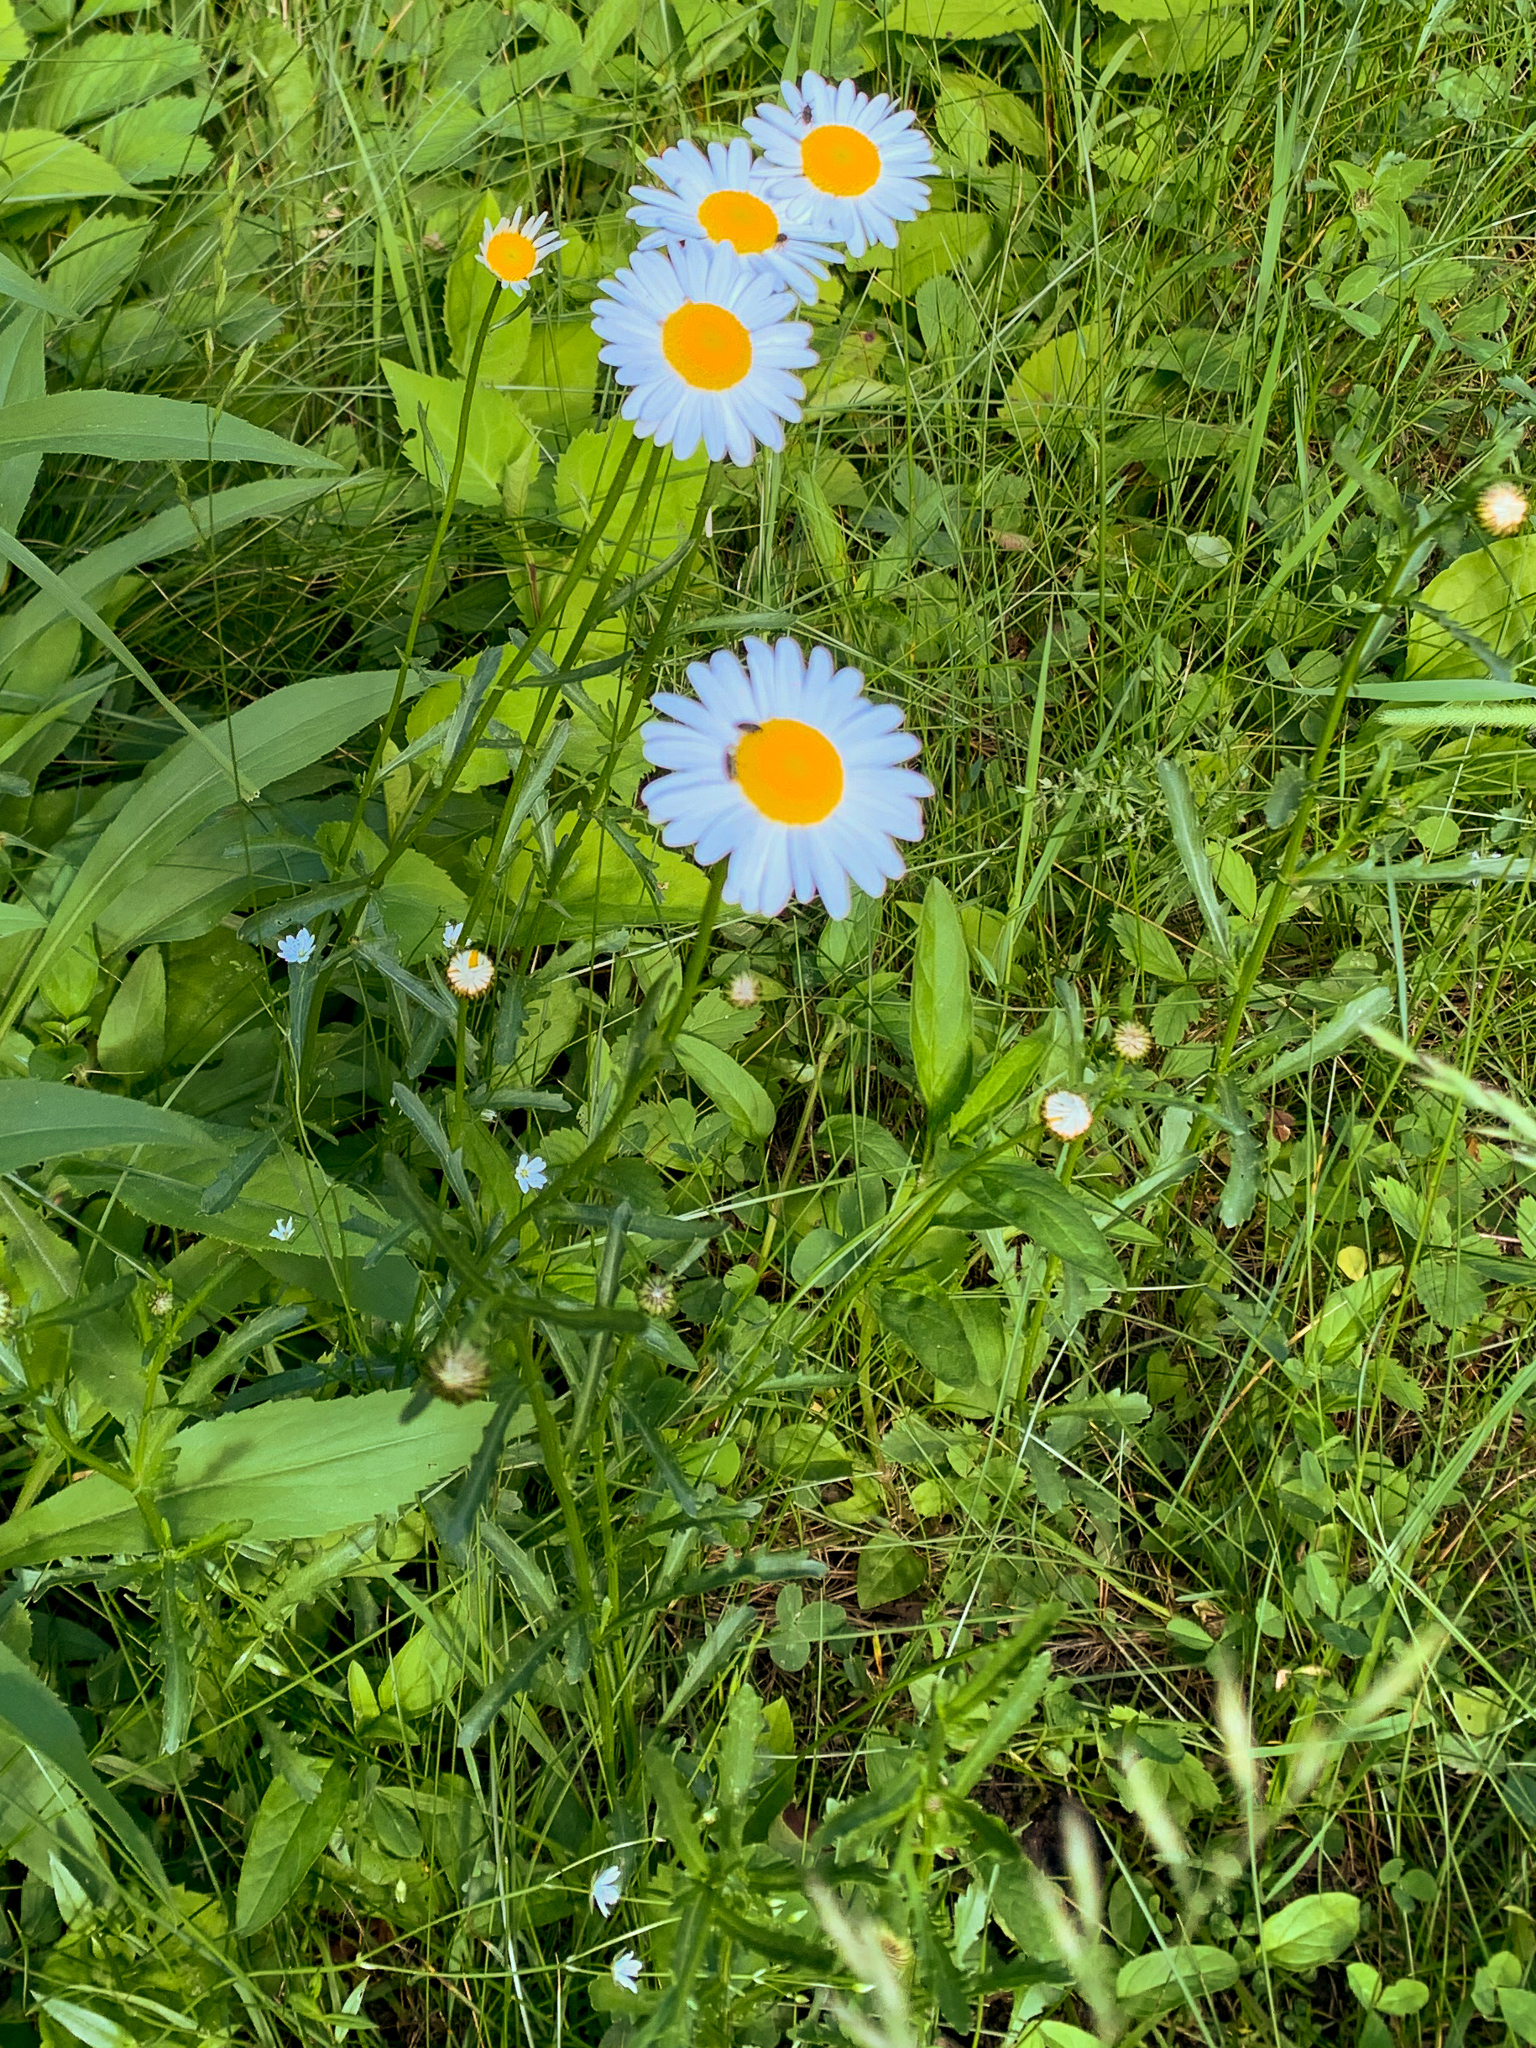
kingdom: Plantae
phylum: Tracheophyta
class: Magnoliopsida
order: Asterales
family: Asteraceae
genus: Leucanthemum
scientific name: Leucanthemum vulgare
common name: Oxeye daisy
